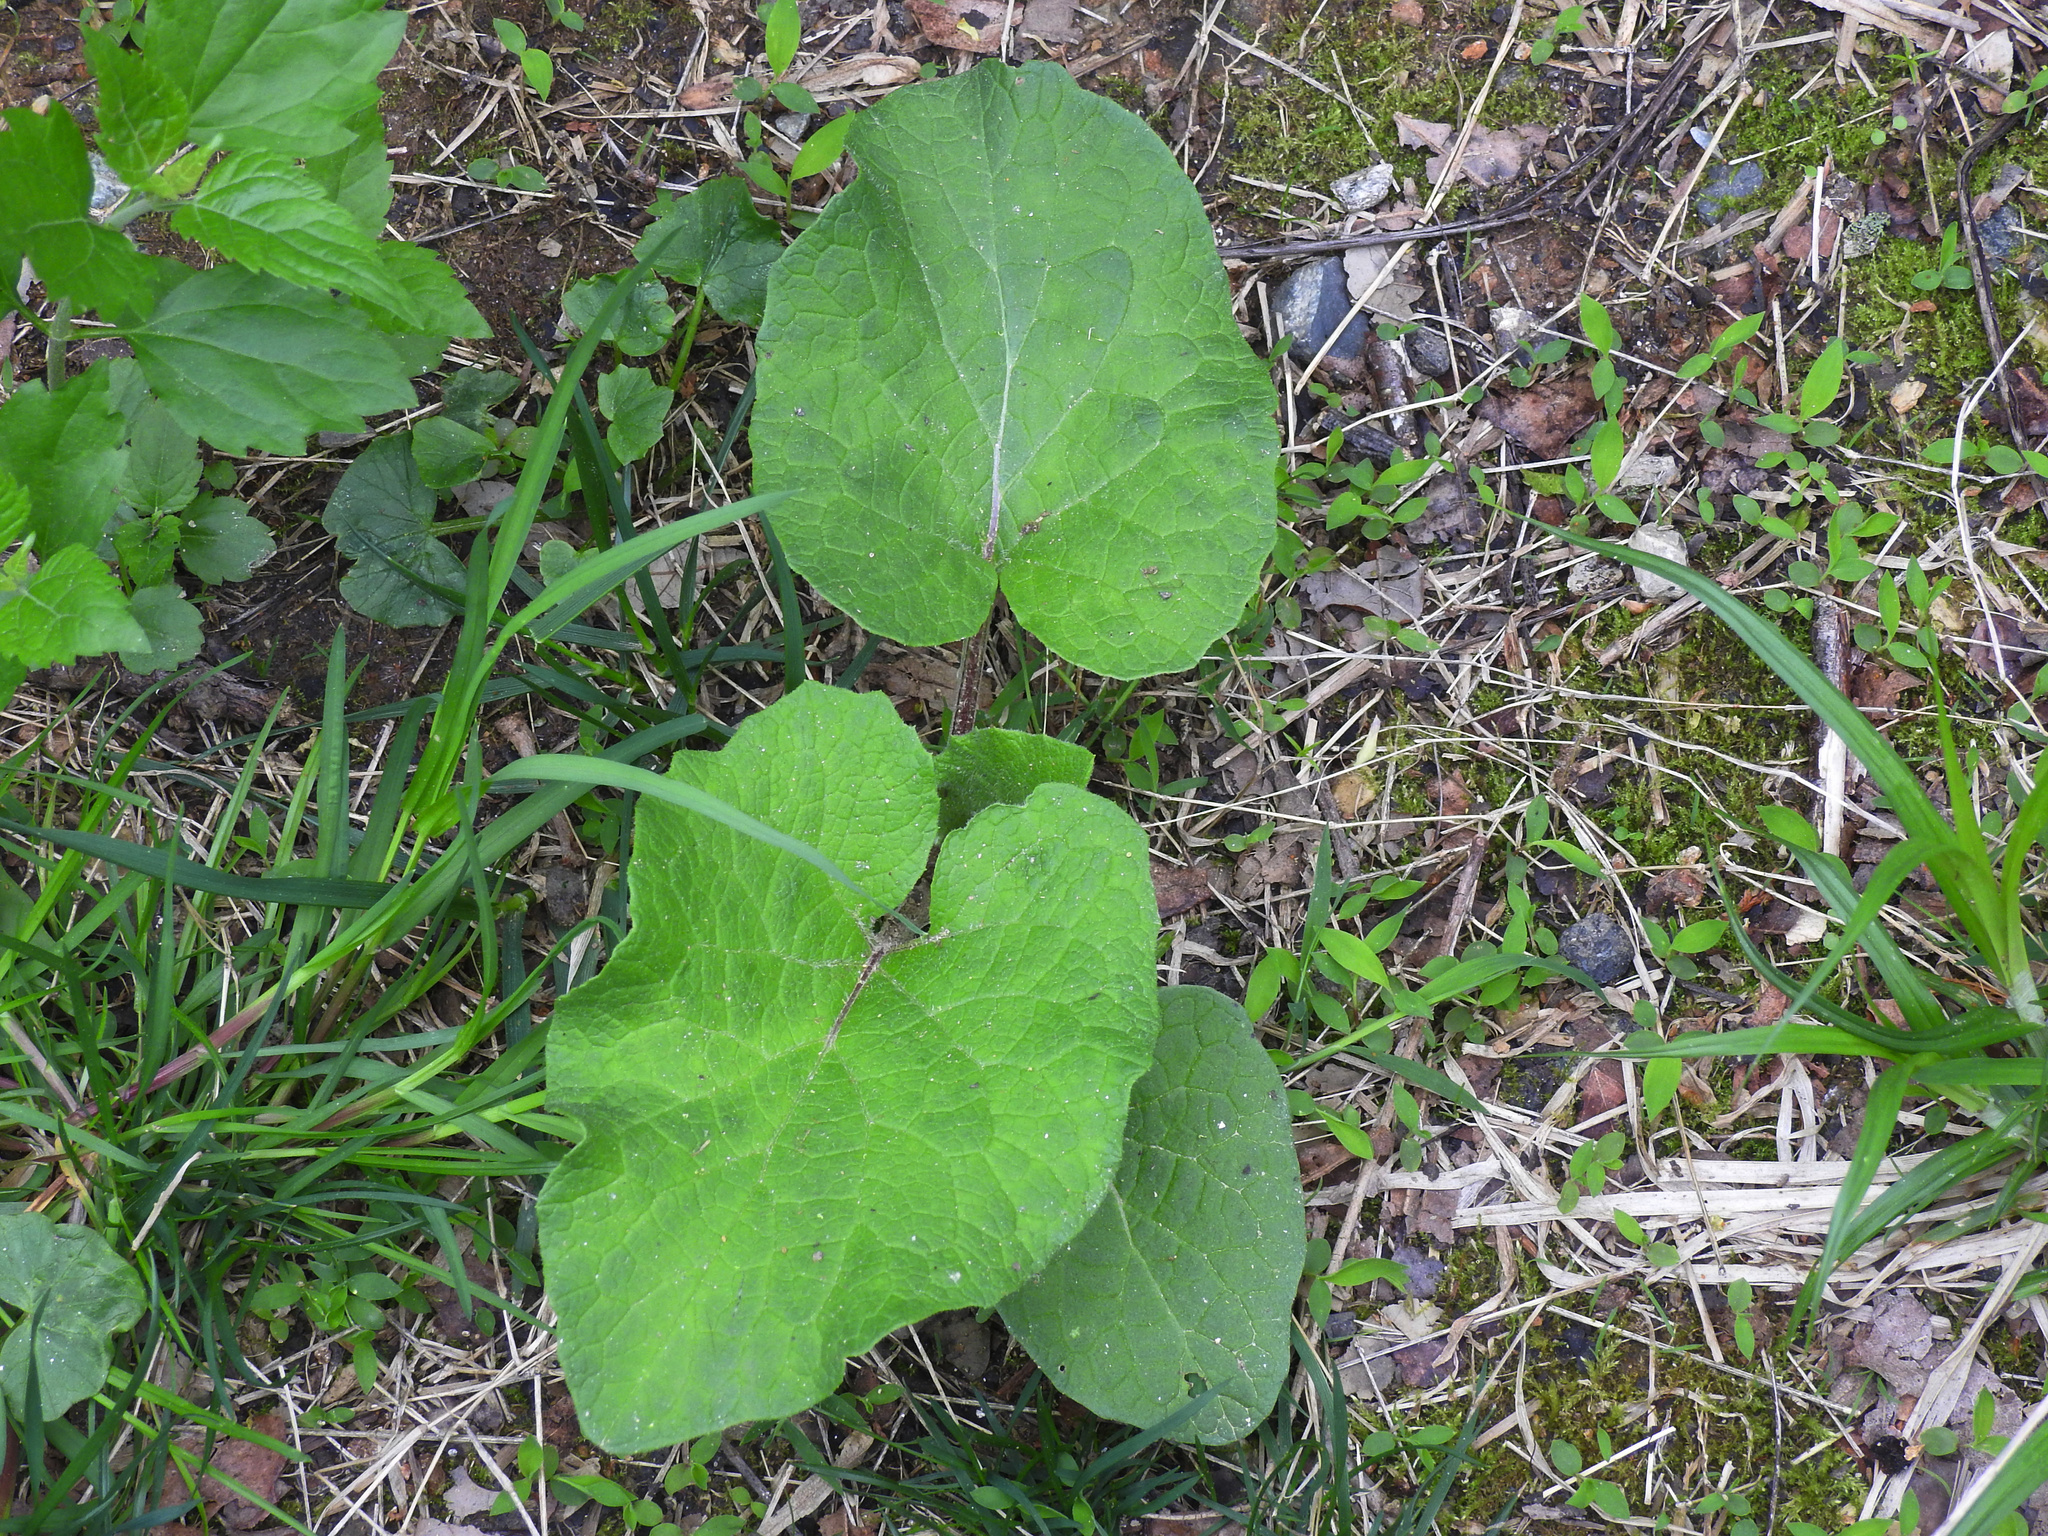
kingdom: Plantae
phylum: Tracheophyta
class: Magnoliopsida
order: Asterales
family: Asteraceae
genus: Arctium
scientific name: Arctium
